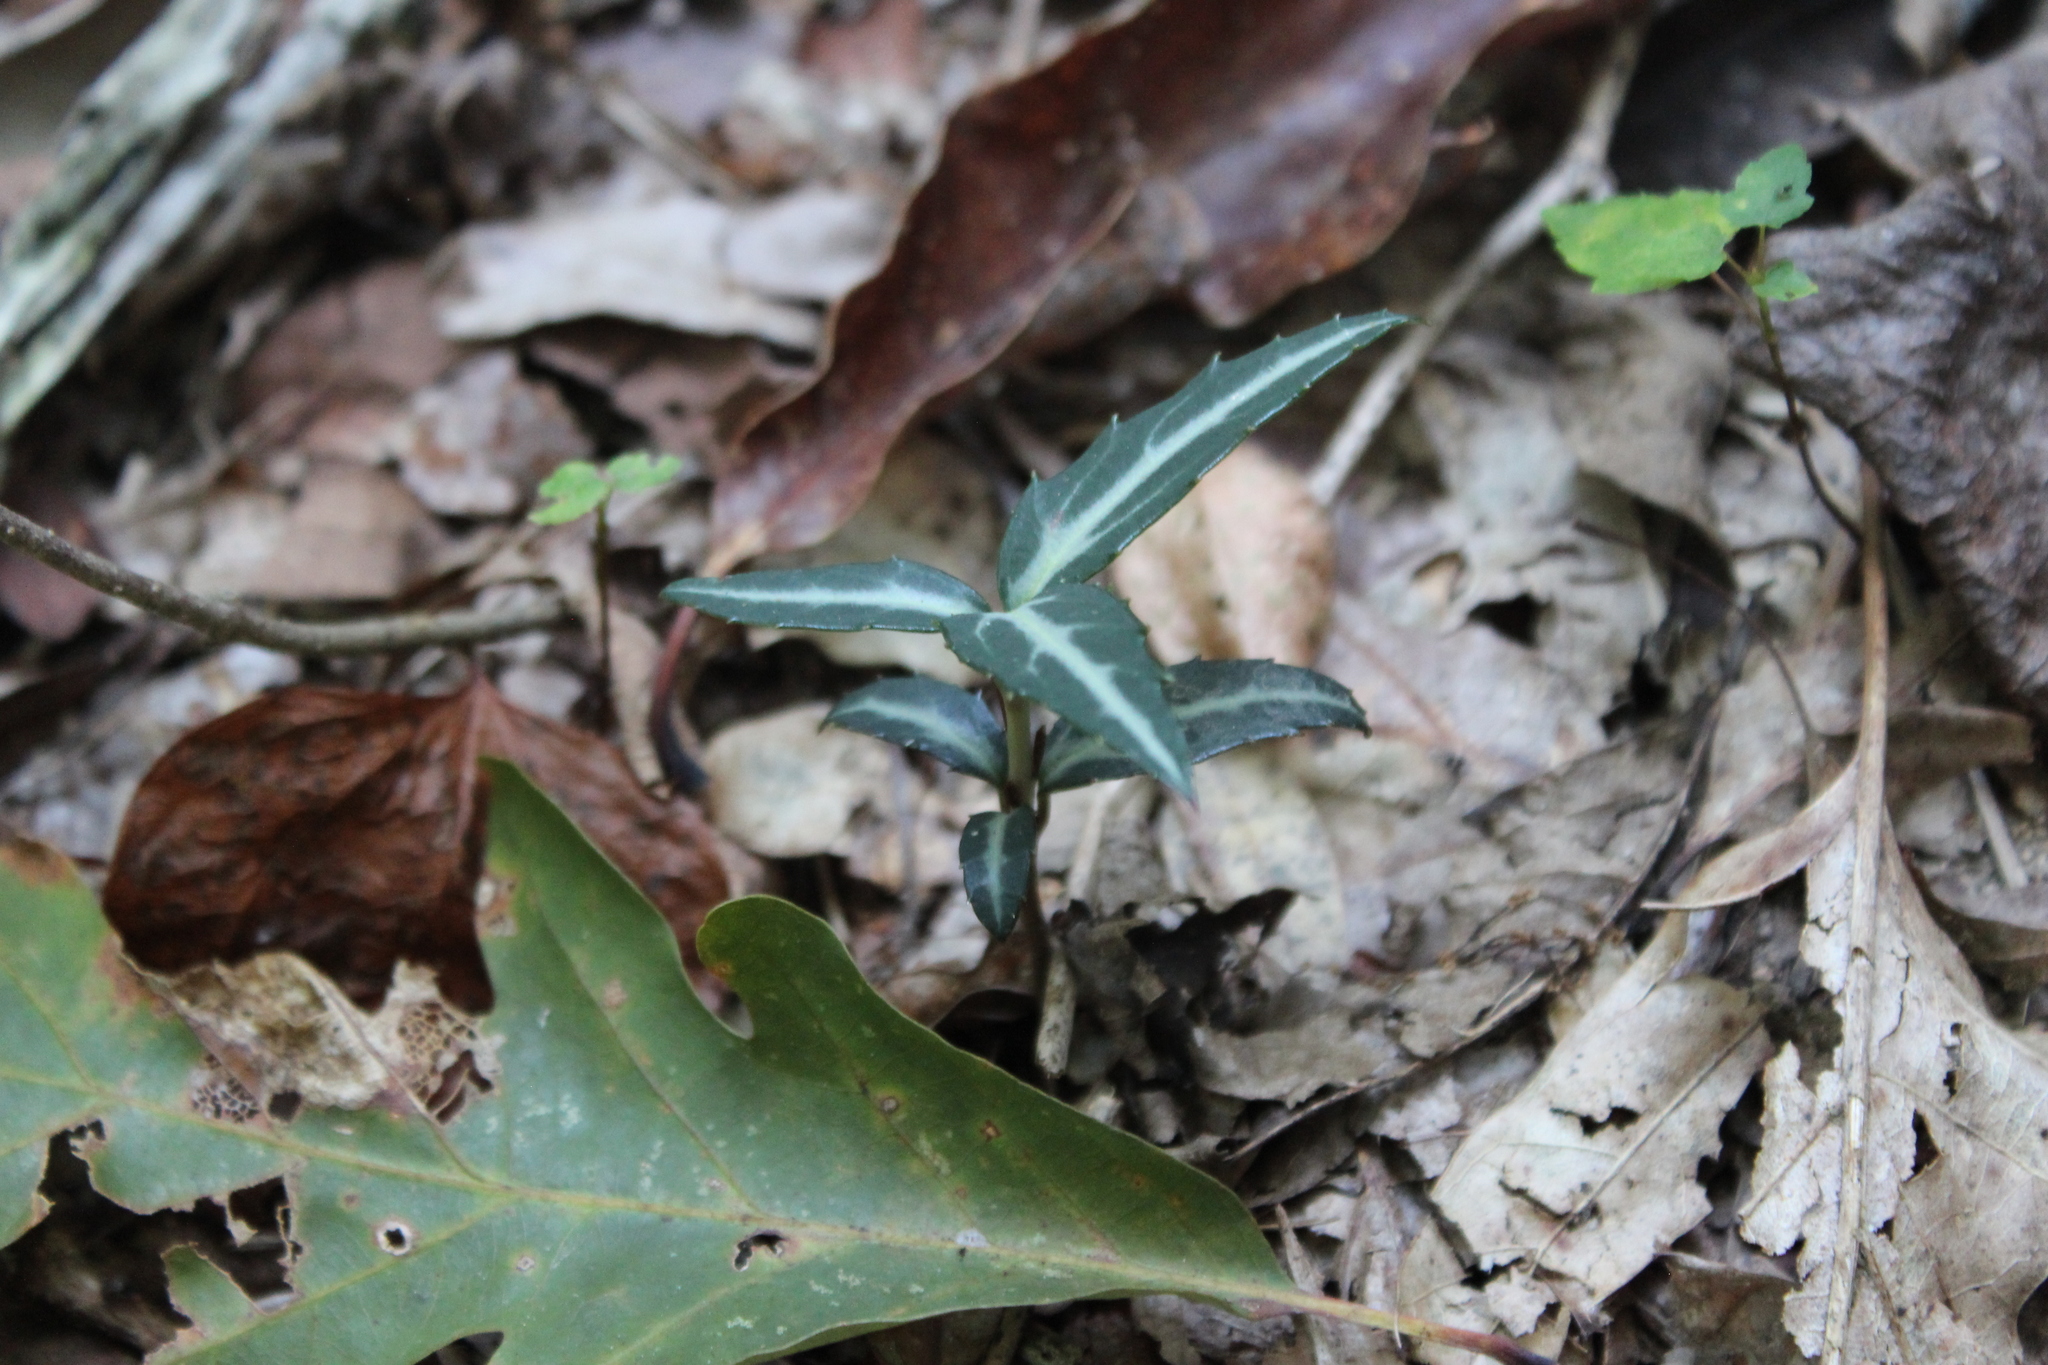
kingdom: Plantae
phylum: Tracheophyta
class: Magnoliopsida
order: Ericales
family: Ericaceae
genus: Chimaphila
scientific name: Chimaphila maculata
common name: Spotted pipsissewa
